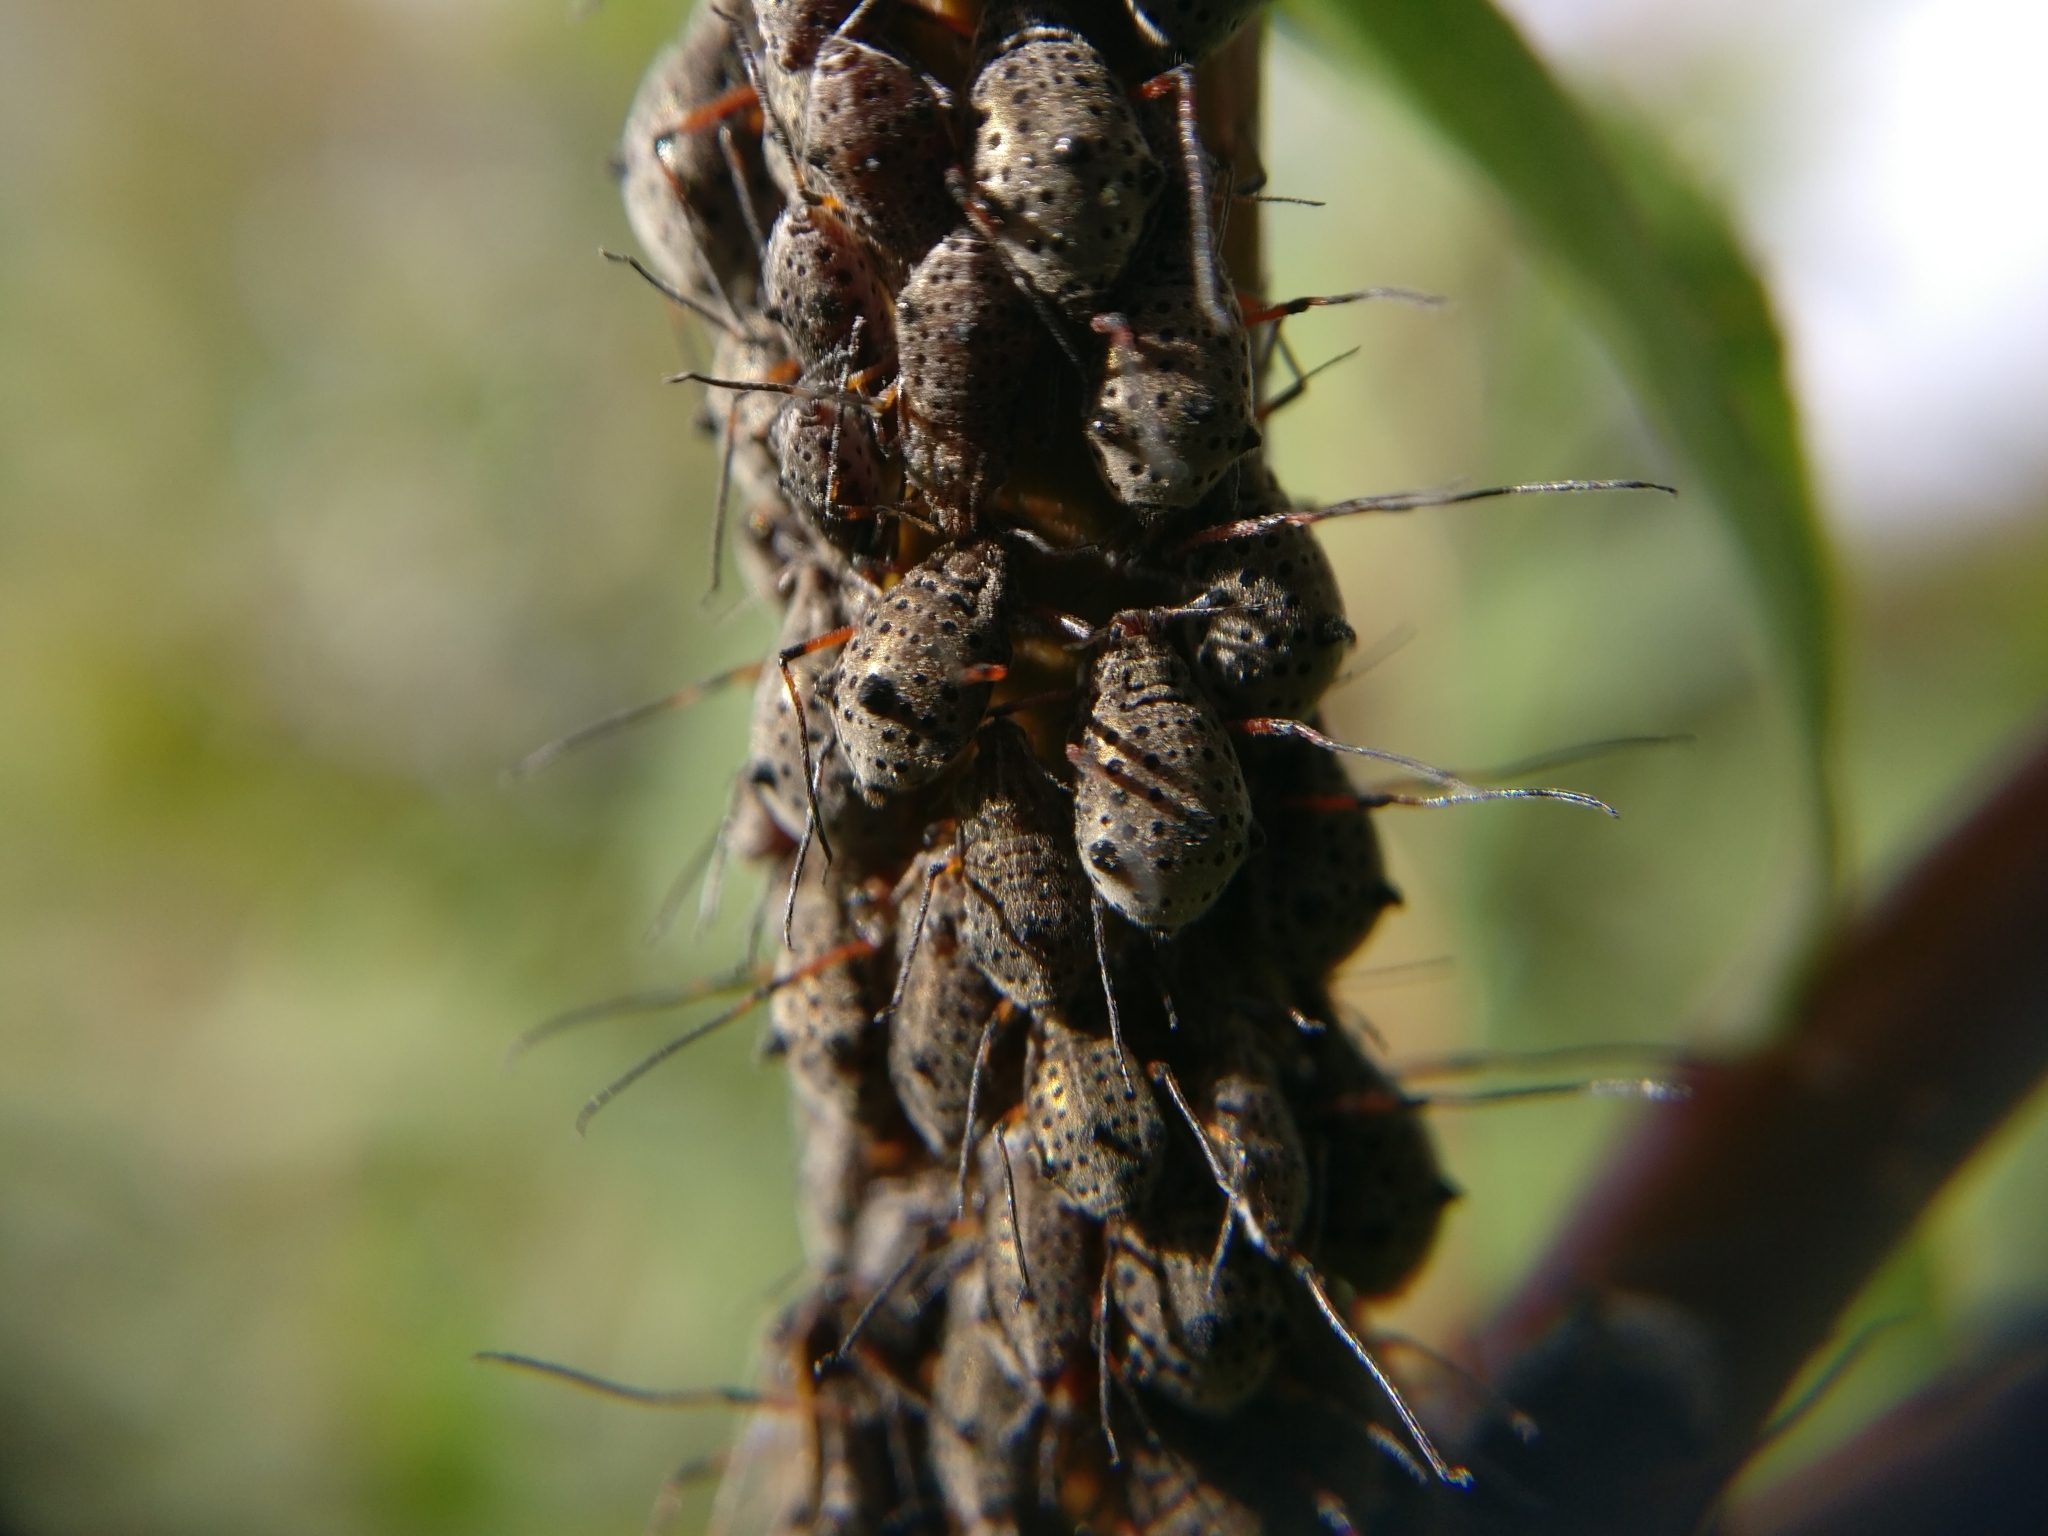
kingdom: Animalia
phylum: Arthropoda
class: Insecta
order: Hemiptera
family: Aphididae
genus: Tuberolachnus
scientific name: Tuberolachnus salignus
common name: Giant willow aphid
